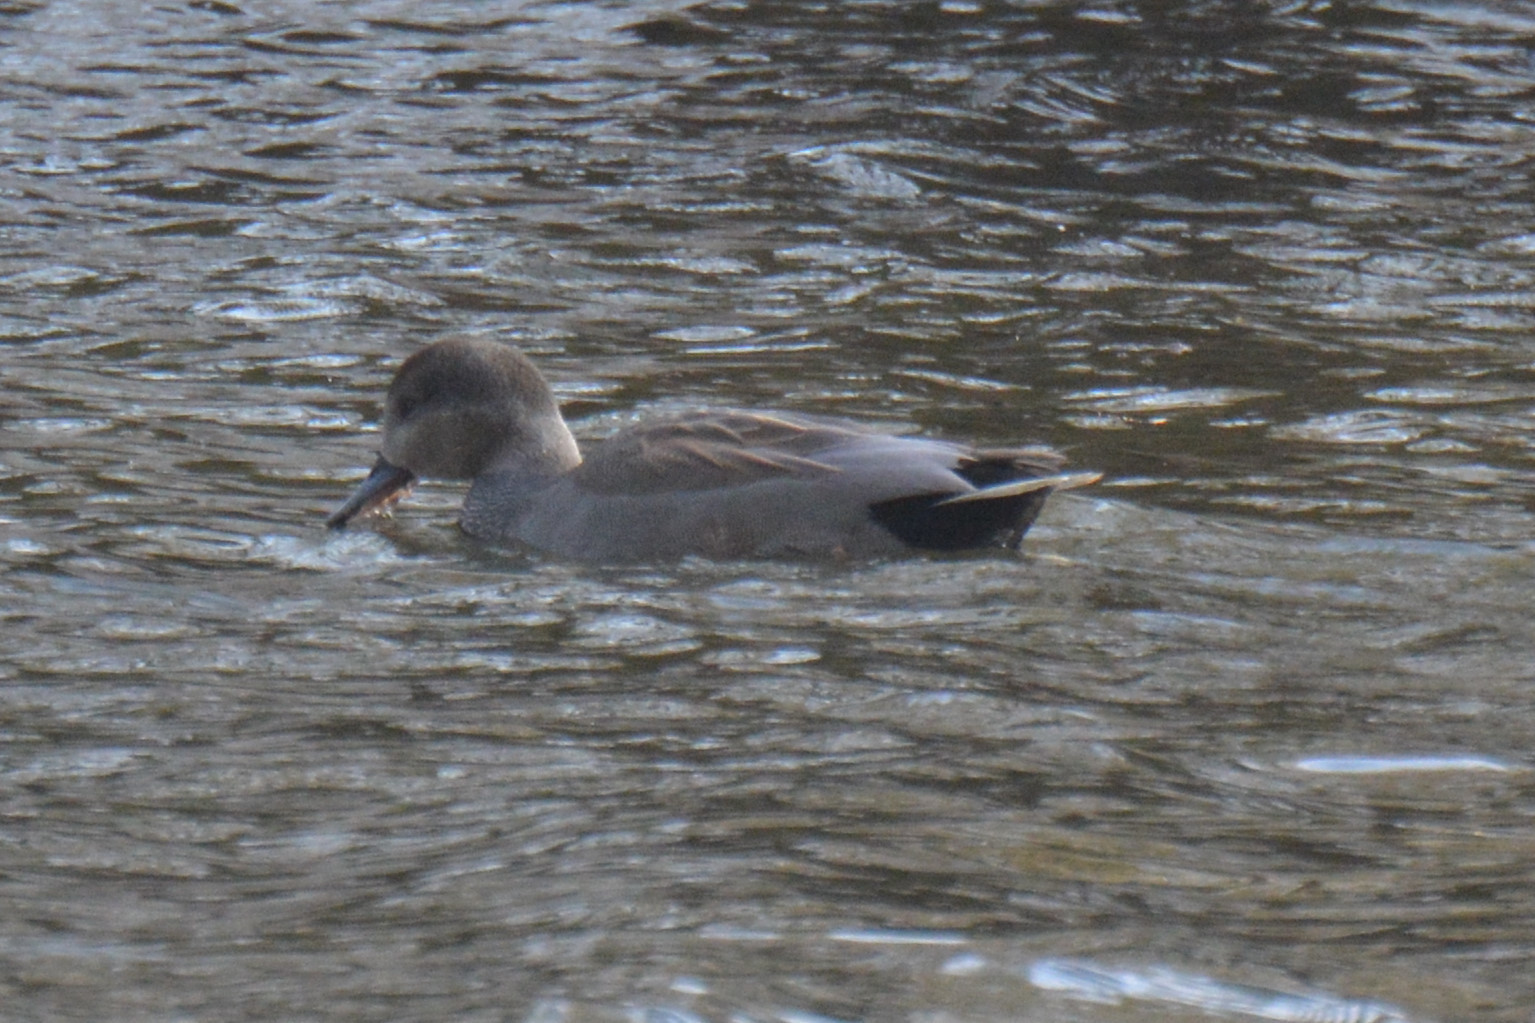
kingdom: Animalia
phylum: Chordata
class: Aves
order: Anseriformes
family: Anatidae
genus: Mareca
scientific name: Mareca strepera
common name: Gadwall
